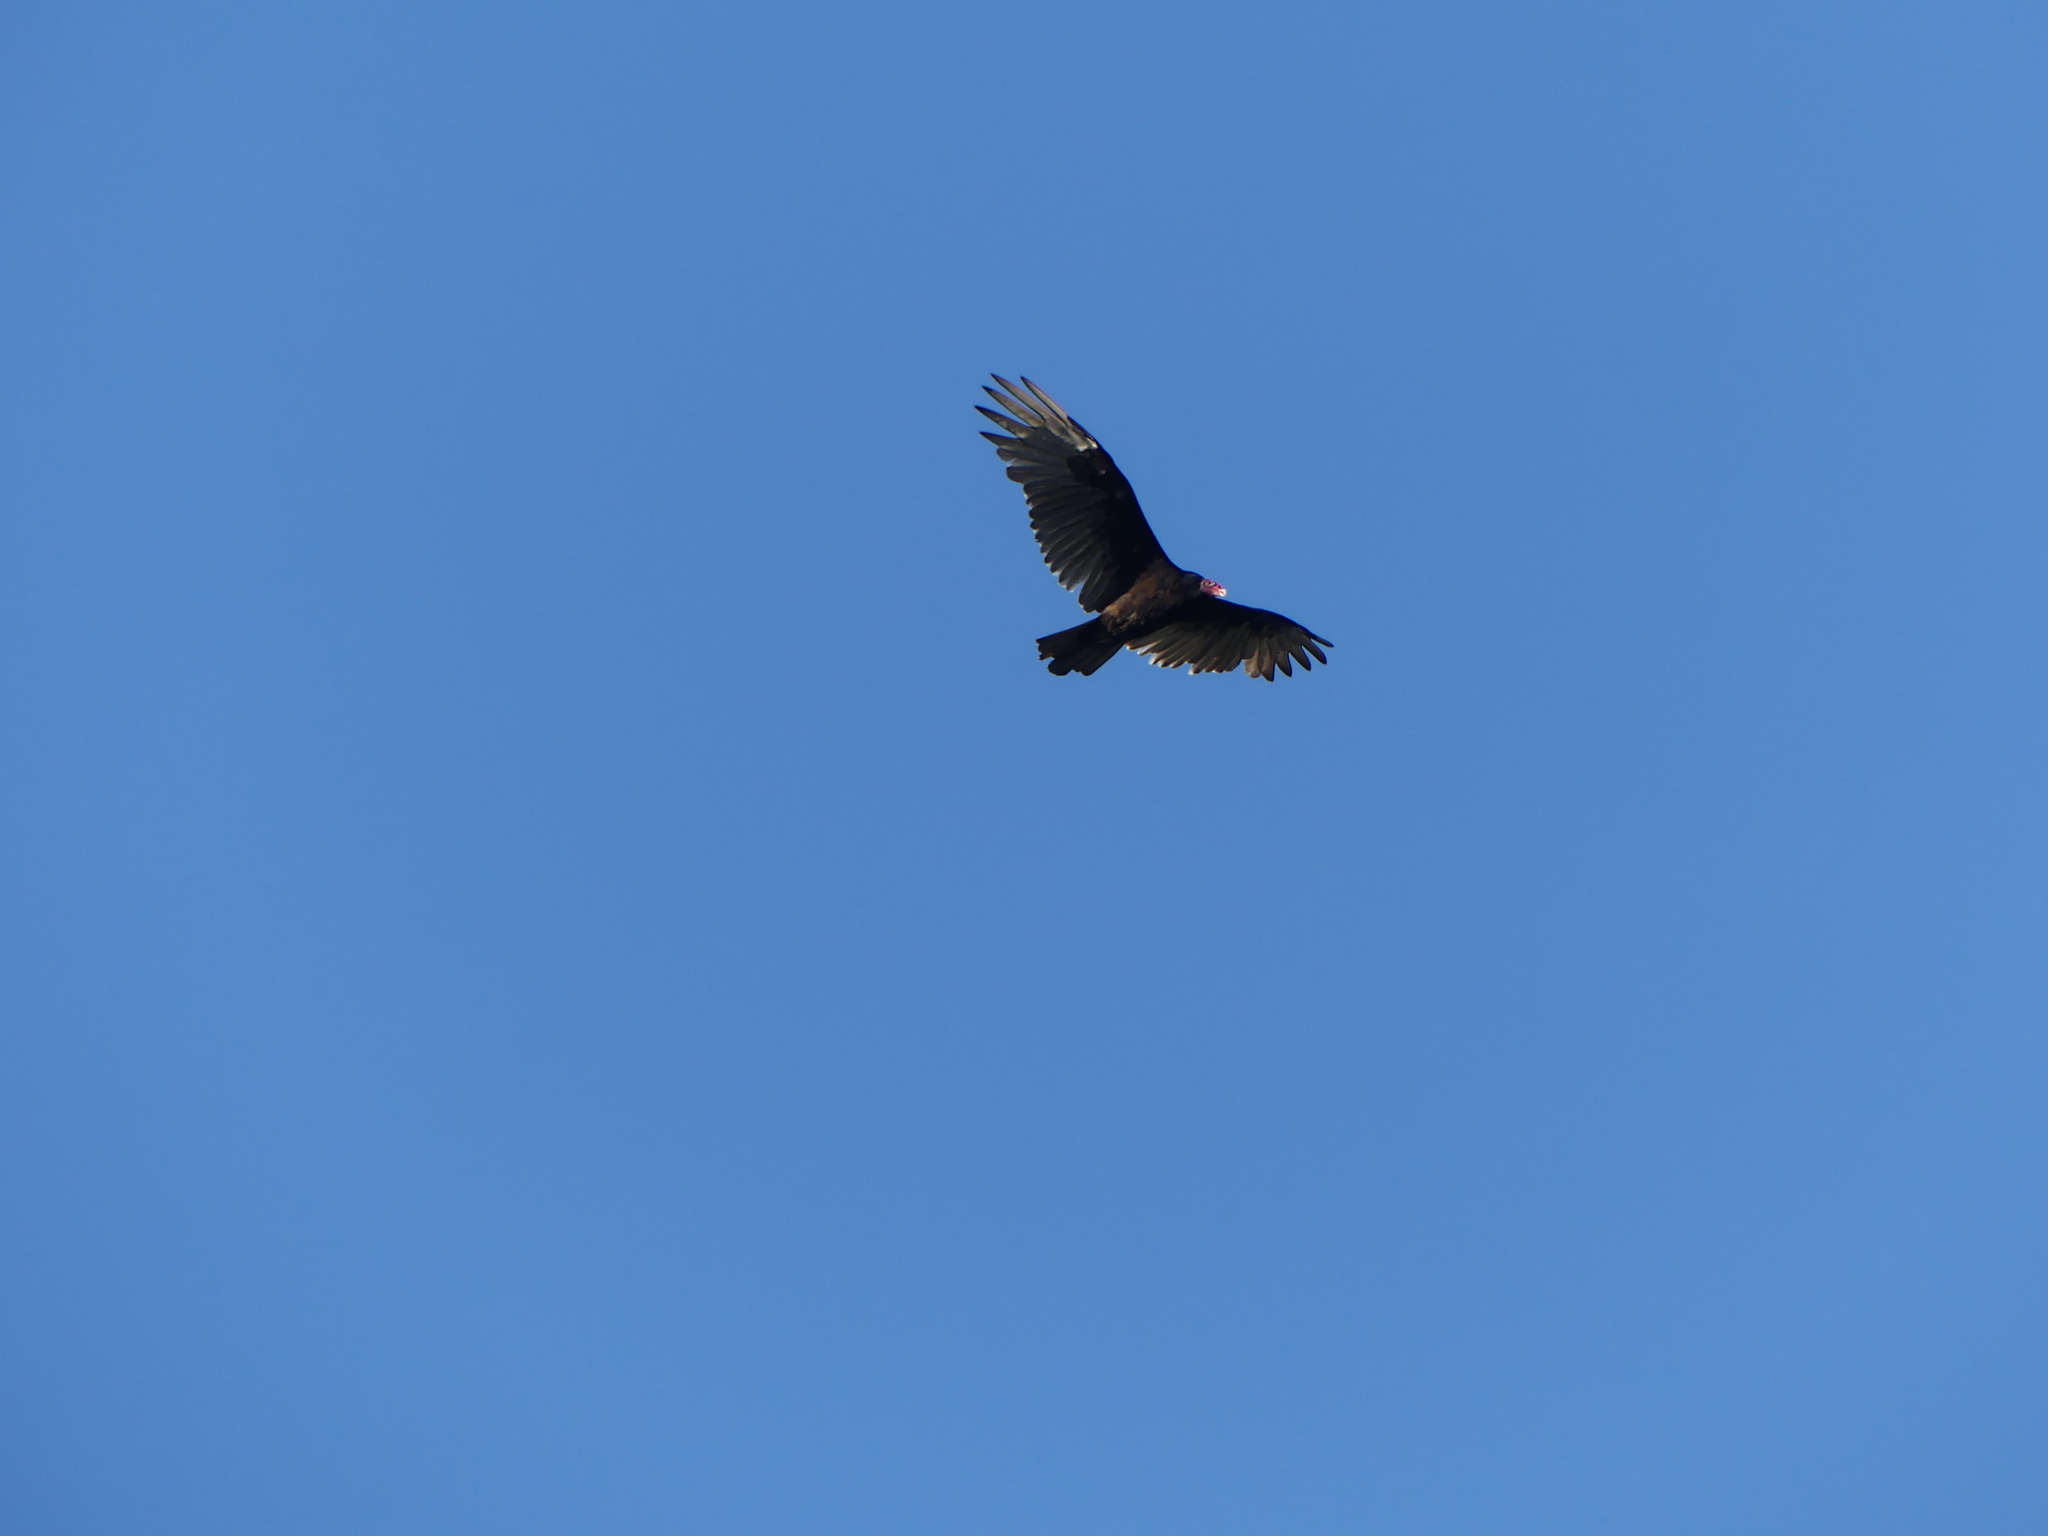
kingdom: Animalia
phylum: Chordata
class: Aves
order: Accipitriformes
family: Cathartidae
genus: Cathartes
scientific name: Cathartes aura
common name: Turkey vulture
